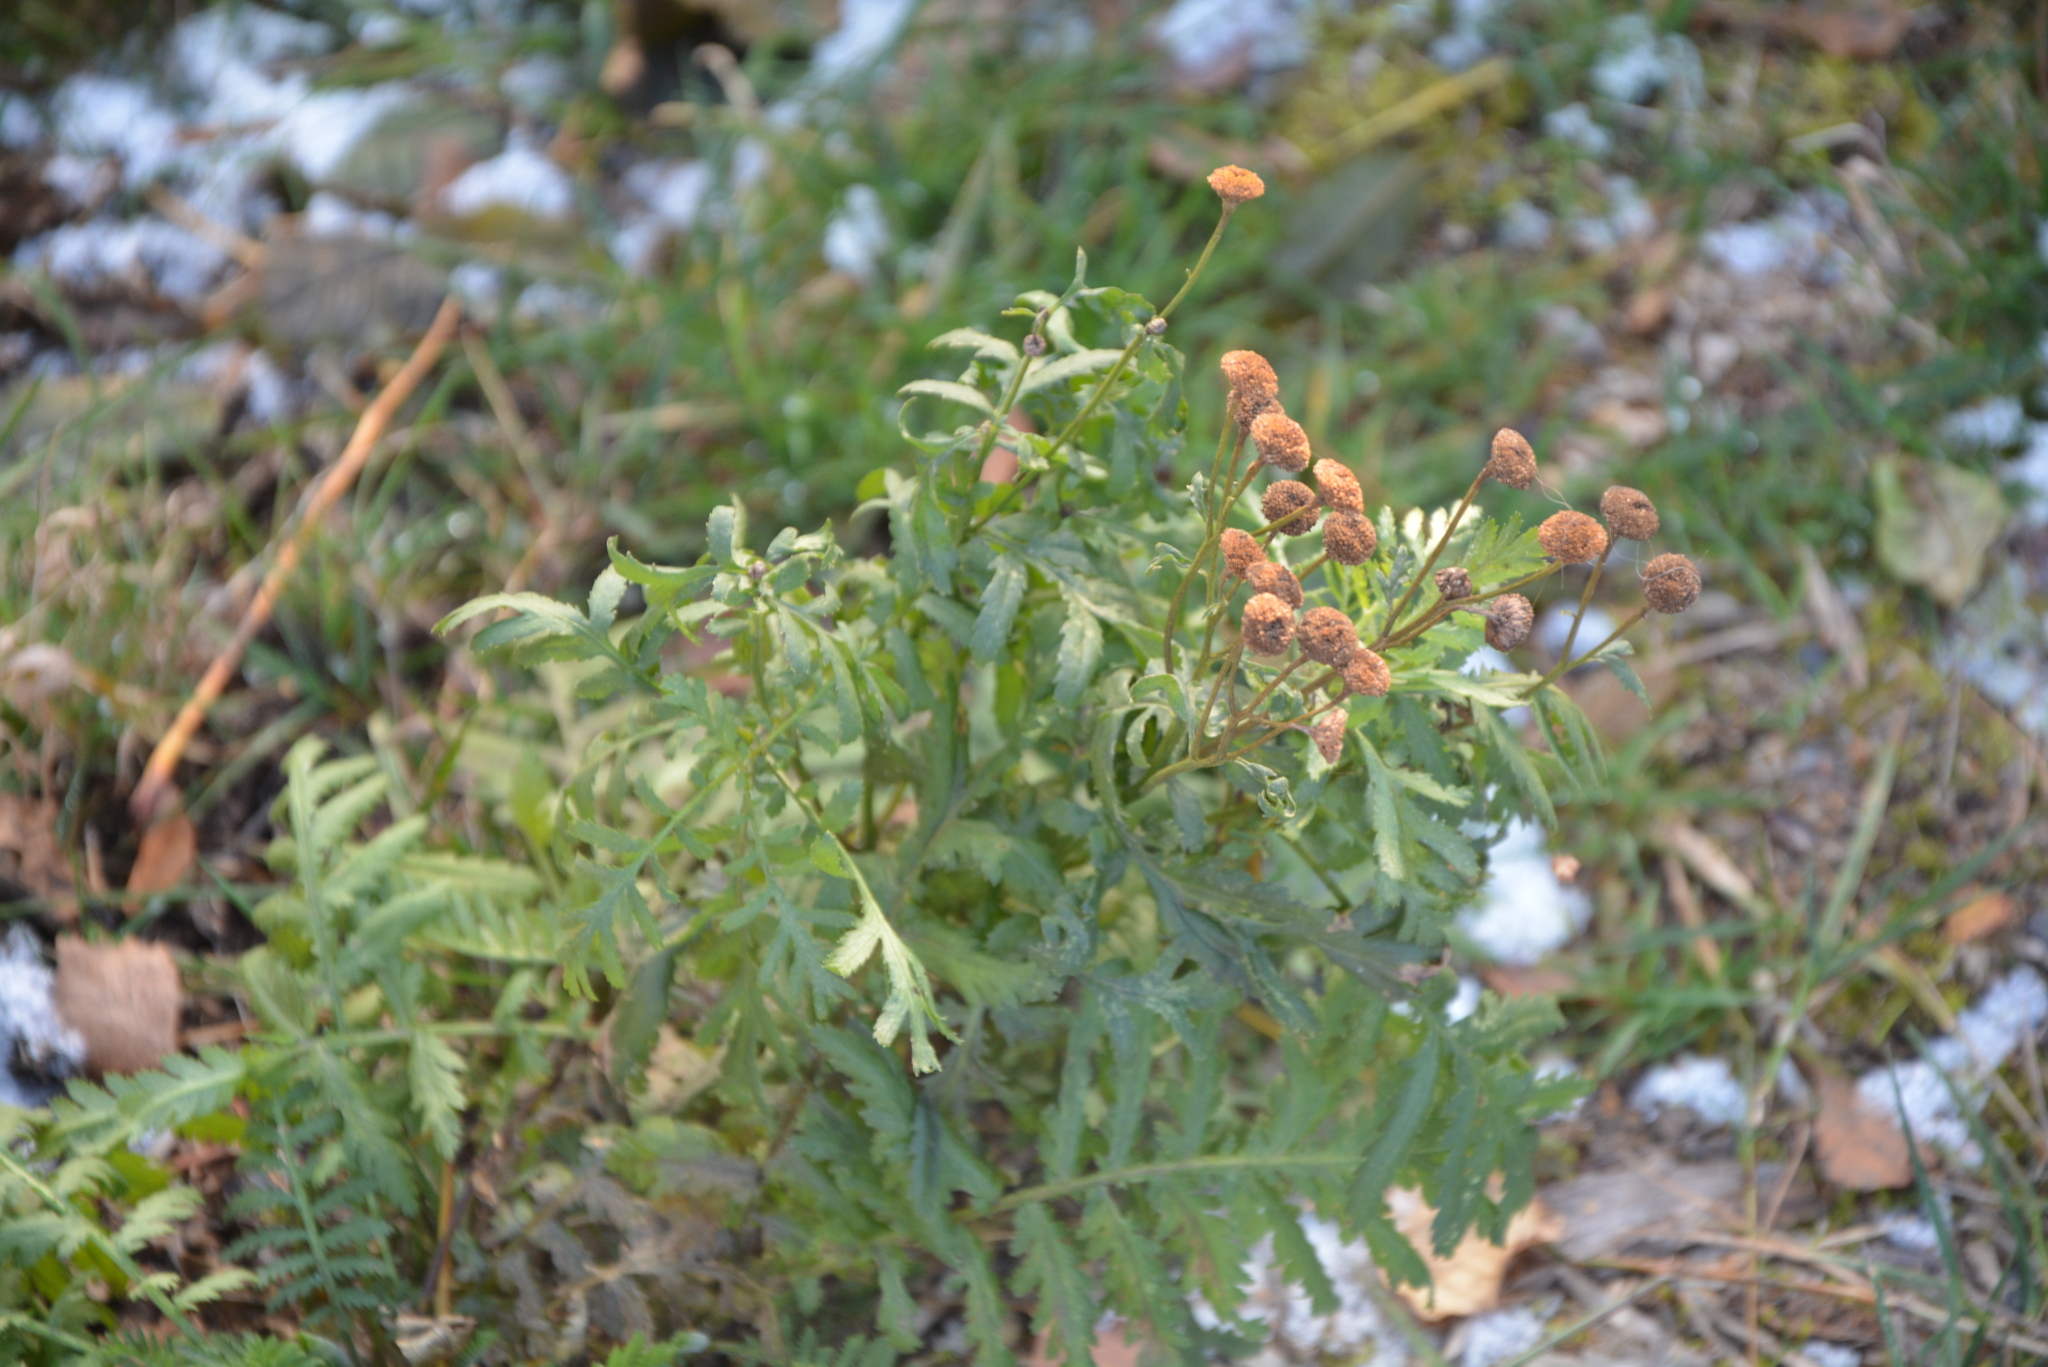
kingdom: Plantae
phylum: Tracheophyta
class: Magnoliopsida
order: Asterales
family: Asteraceae
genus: Tanacetum
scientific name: Tanacetum vulgare
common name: Common tansy
